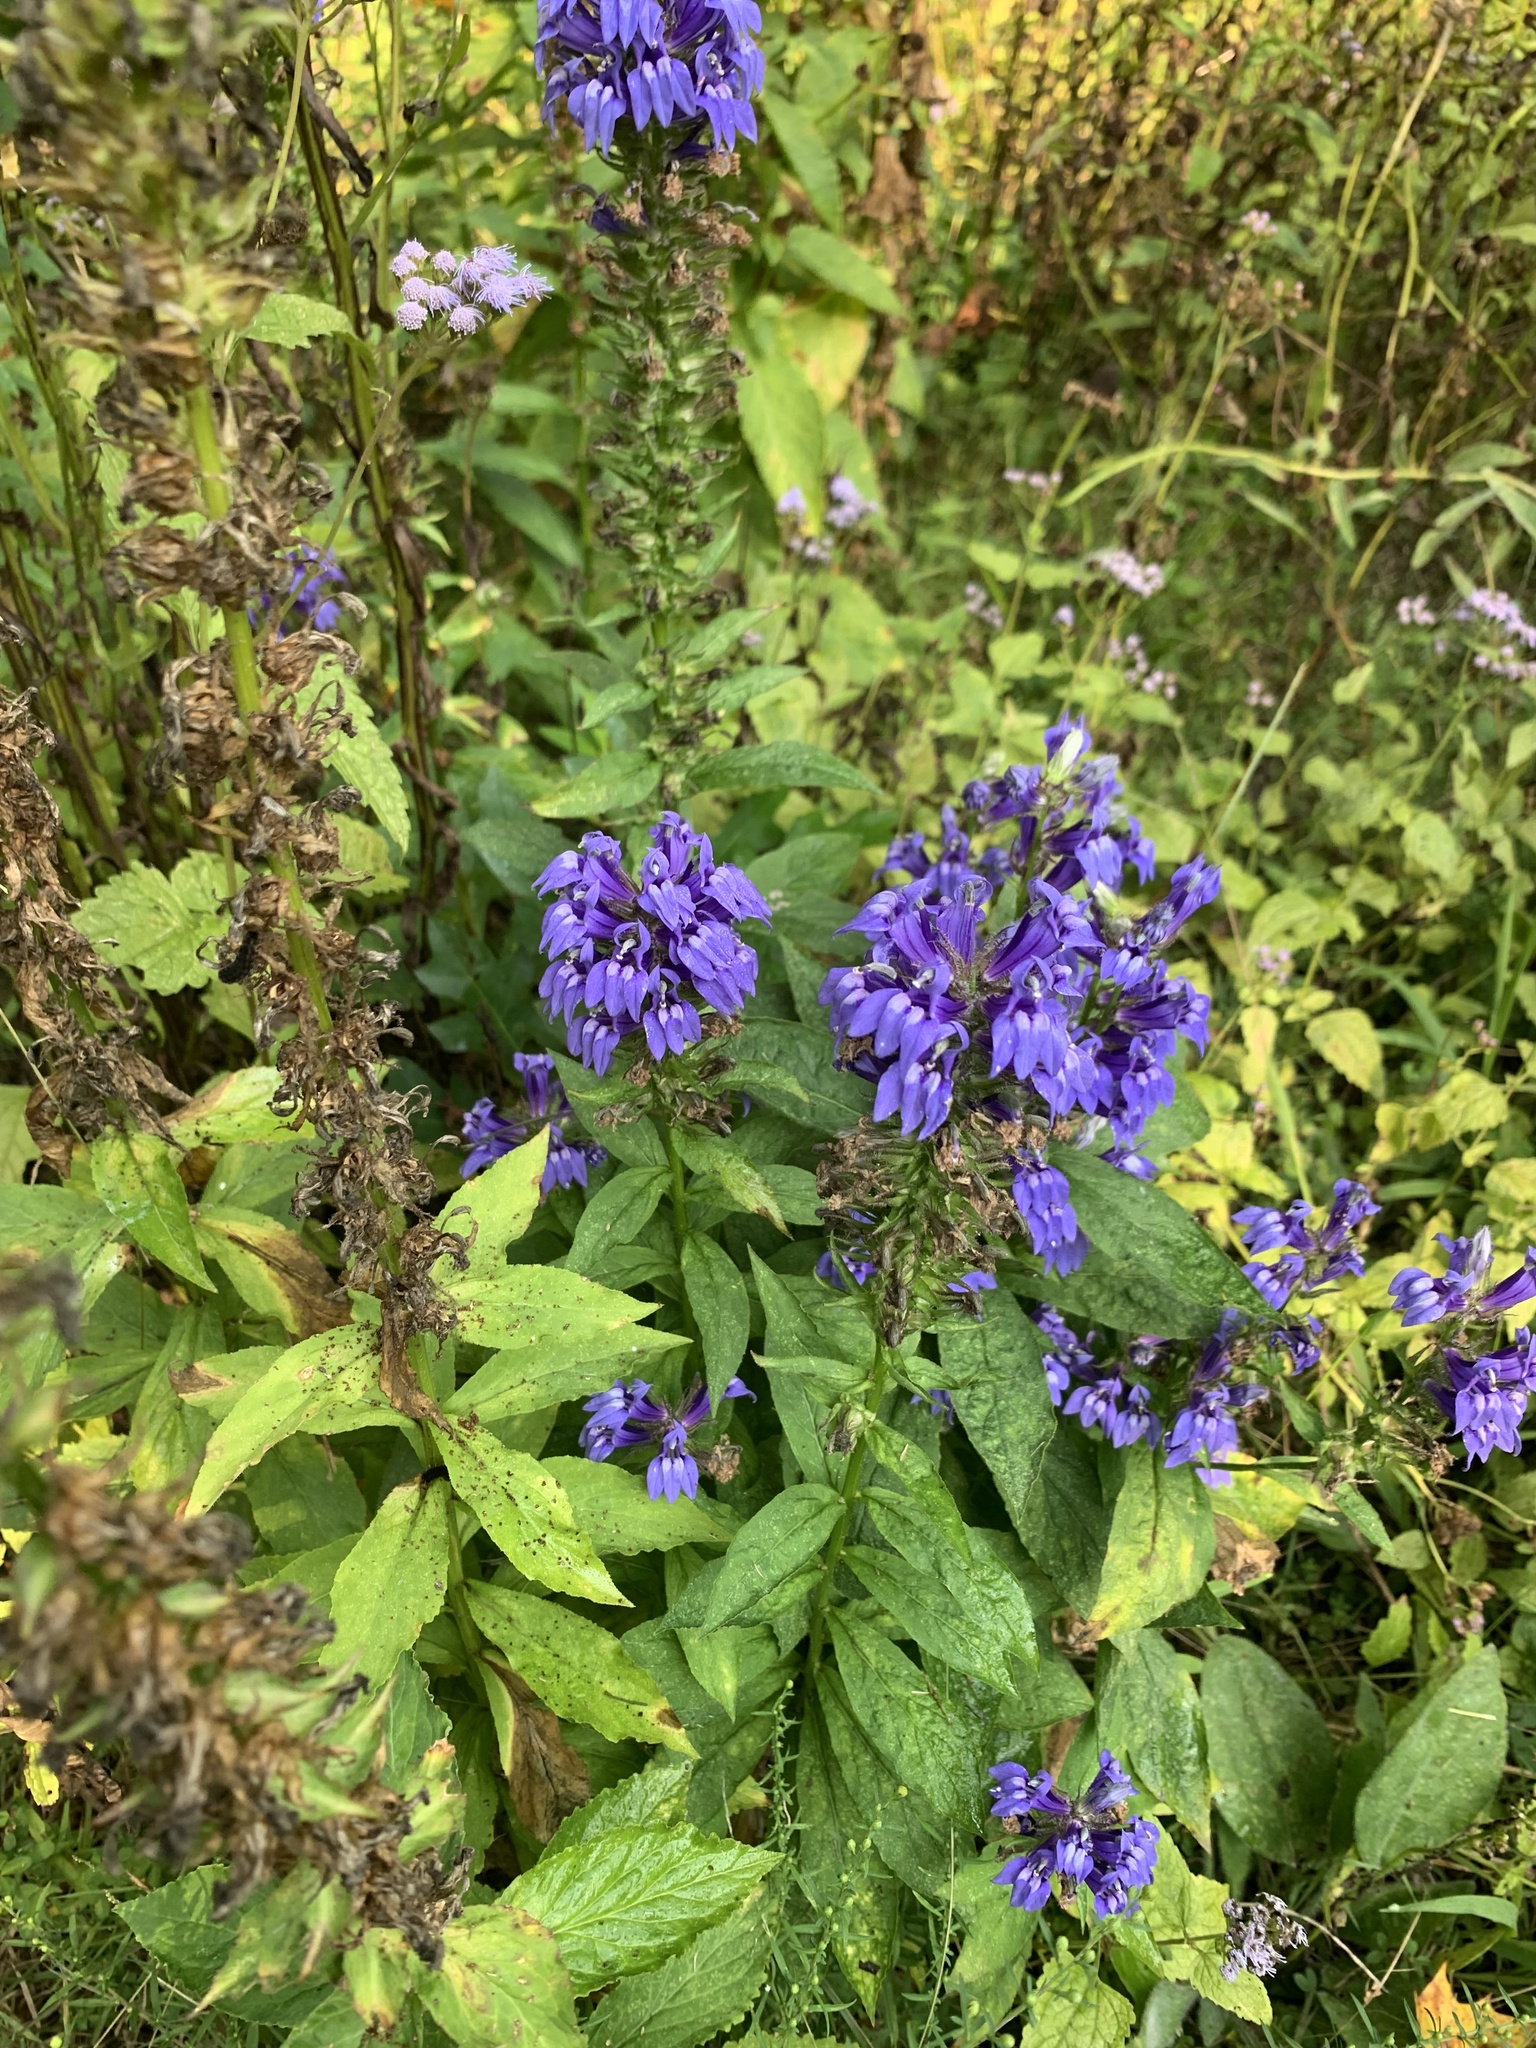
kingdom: Plantae
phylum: Tracheophyta
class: Magnoliopsida
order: Asterales
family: Campanulaceae
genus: Lobelia
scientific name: Lobelia siphilitica
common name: Great lobelia
